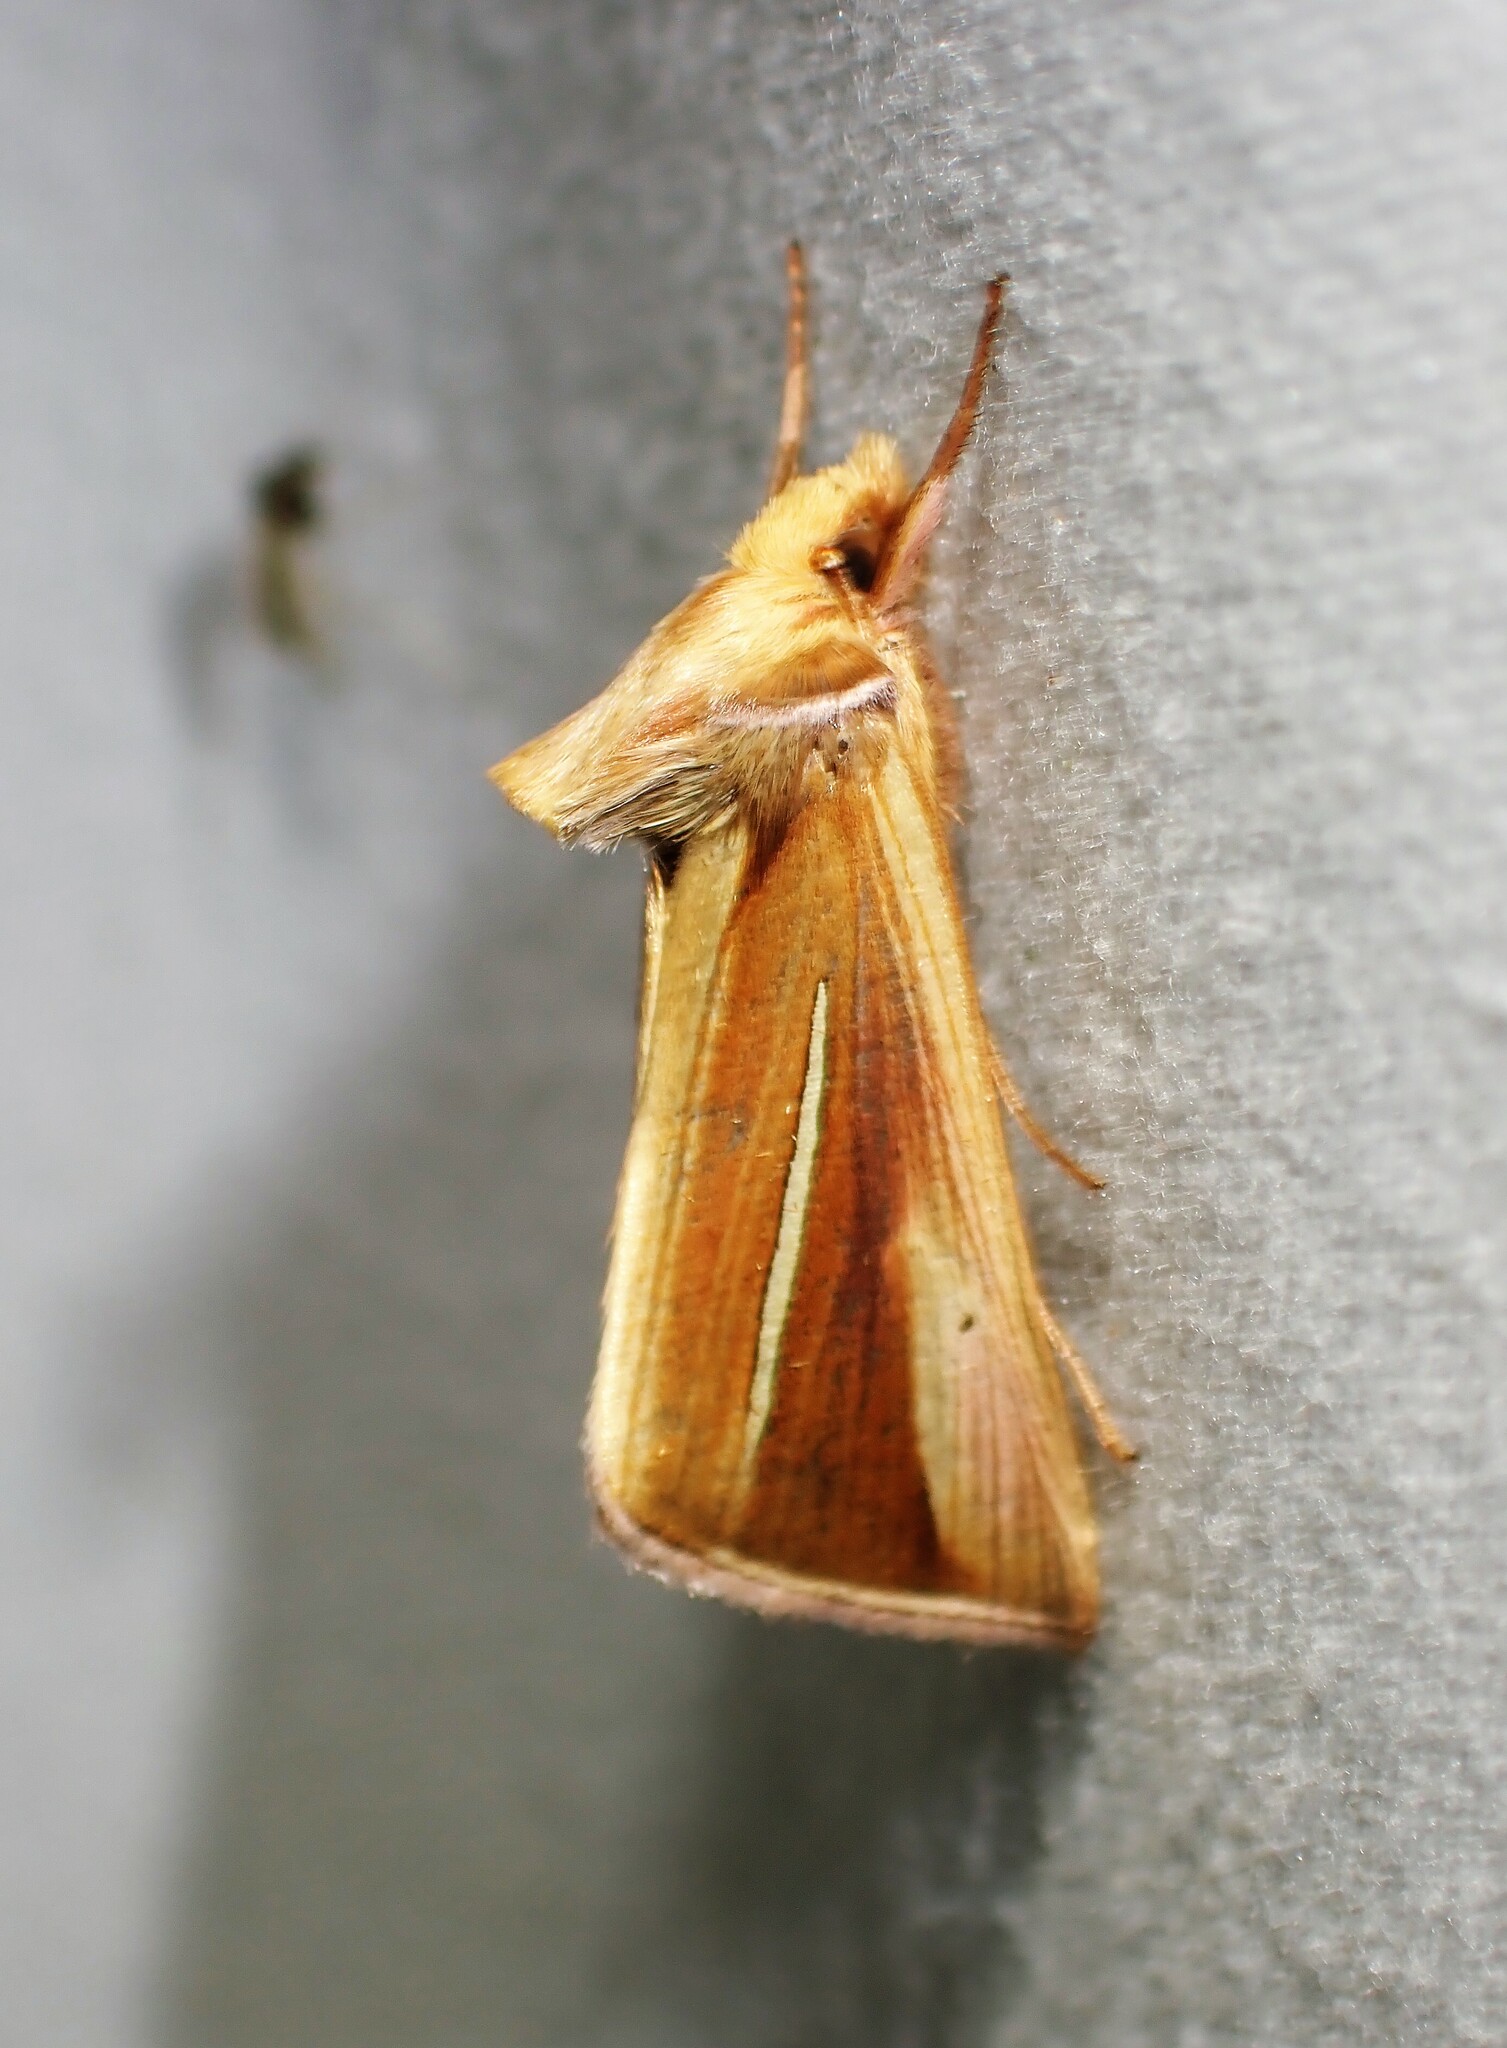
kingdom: Animalia
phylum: Arthropoda
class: Insecta
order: Lepidoptera
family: Noctuidae
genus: Plusia
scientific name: Plusia venusta
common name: White-streaked looper moth
